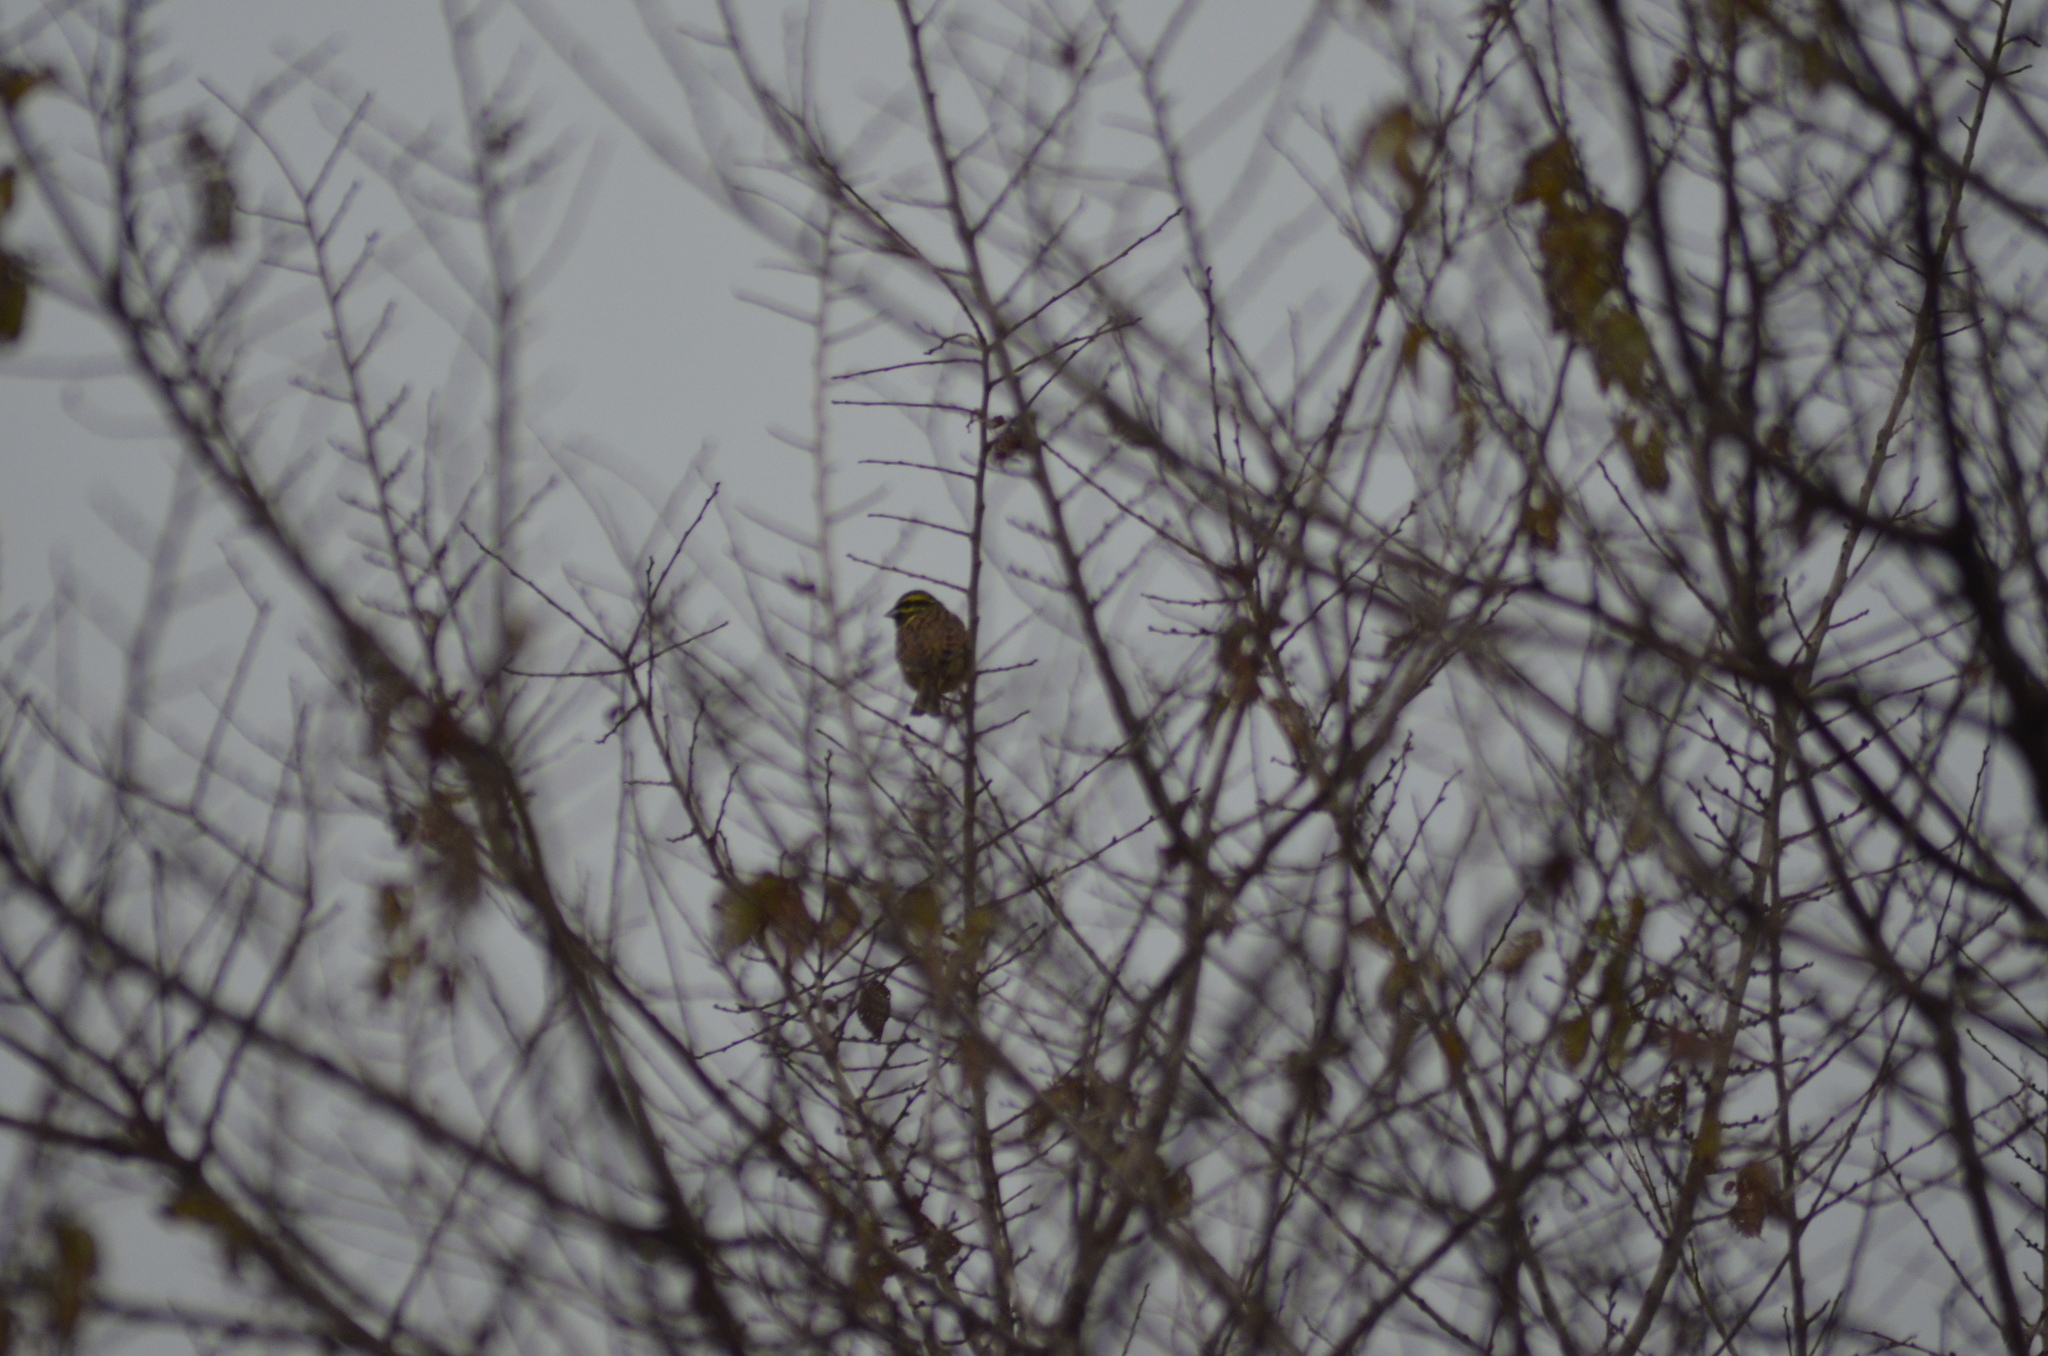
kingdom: Animalia
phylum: Chordata
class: Aves
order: Passeriformes
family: Emberizidae
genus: Emberiza
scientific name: Emberiza cirlus
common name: Cirl bunting
